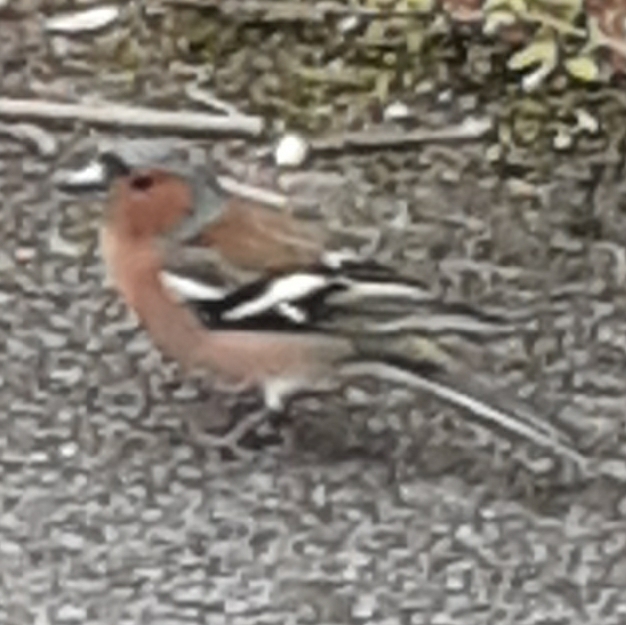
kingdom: Animalia
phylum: Chordata
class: Aves
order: Passeriformes
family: Fringillidae
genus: Fringilla
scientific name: Fringilla coelebs
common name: Common chaffinch
